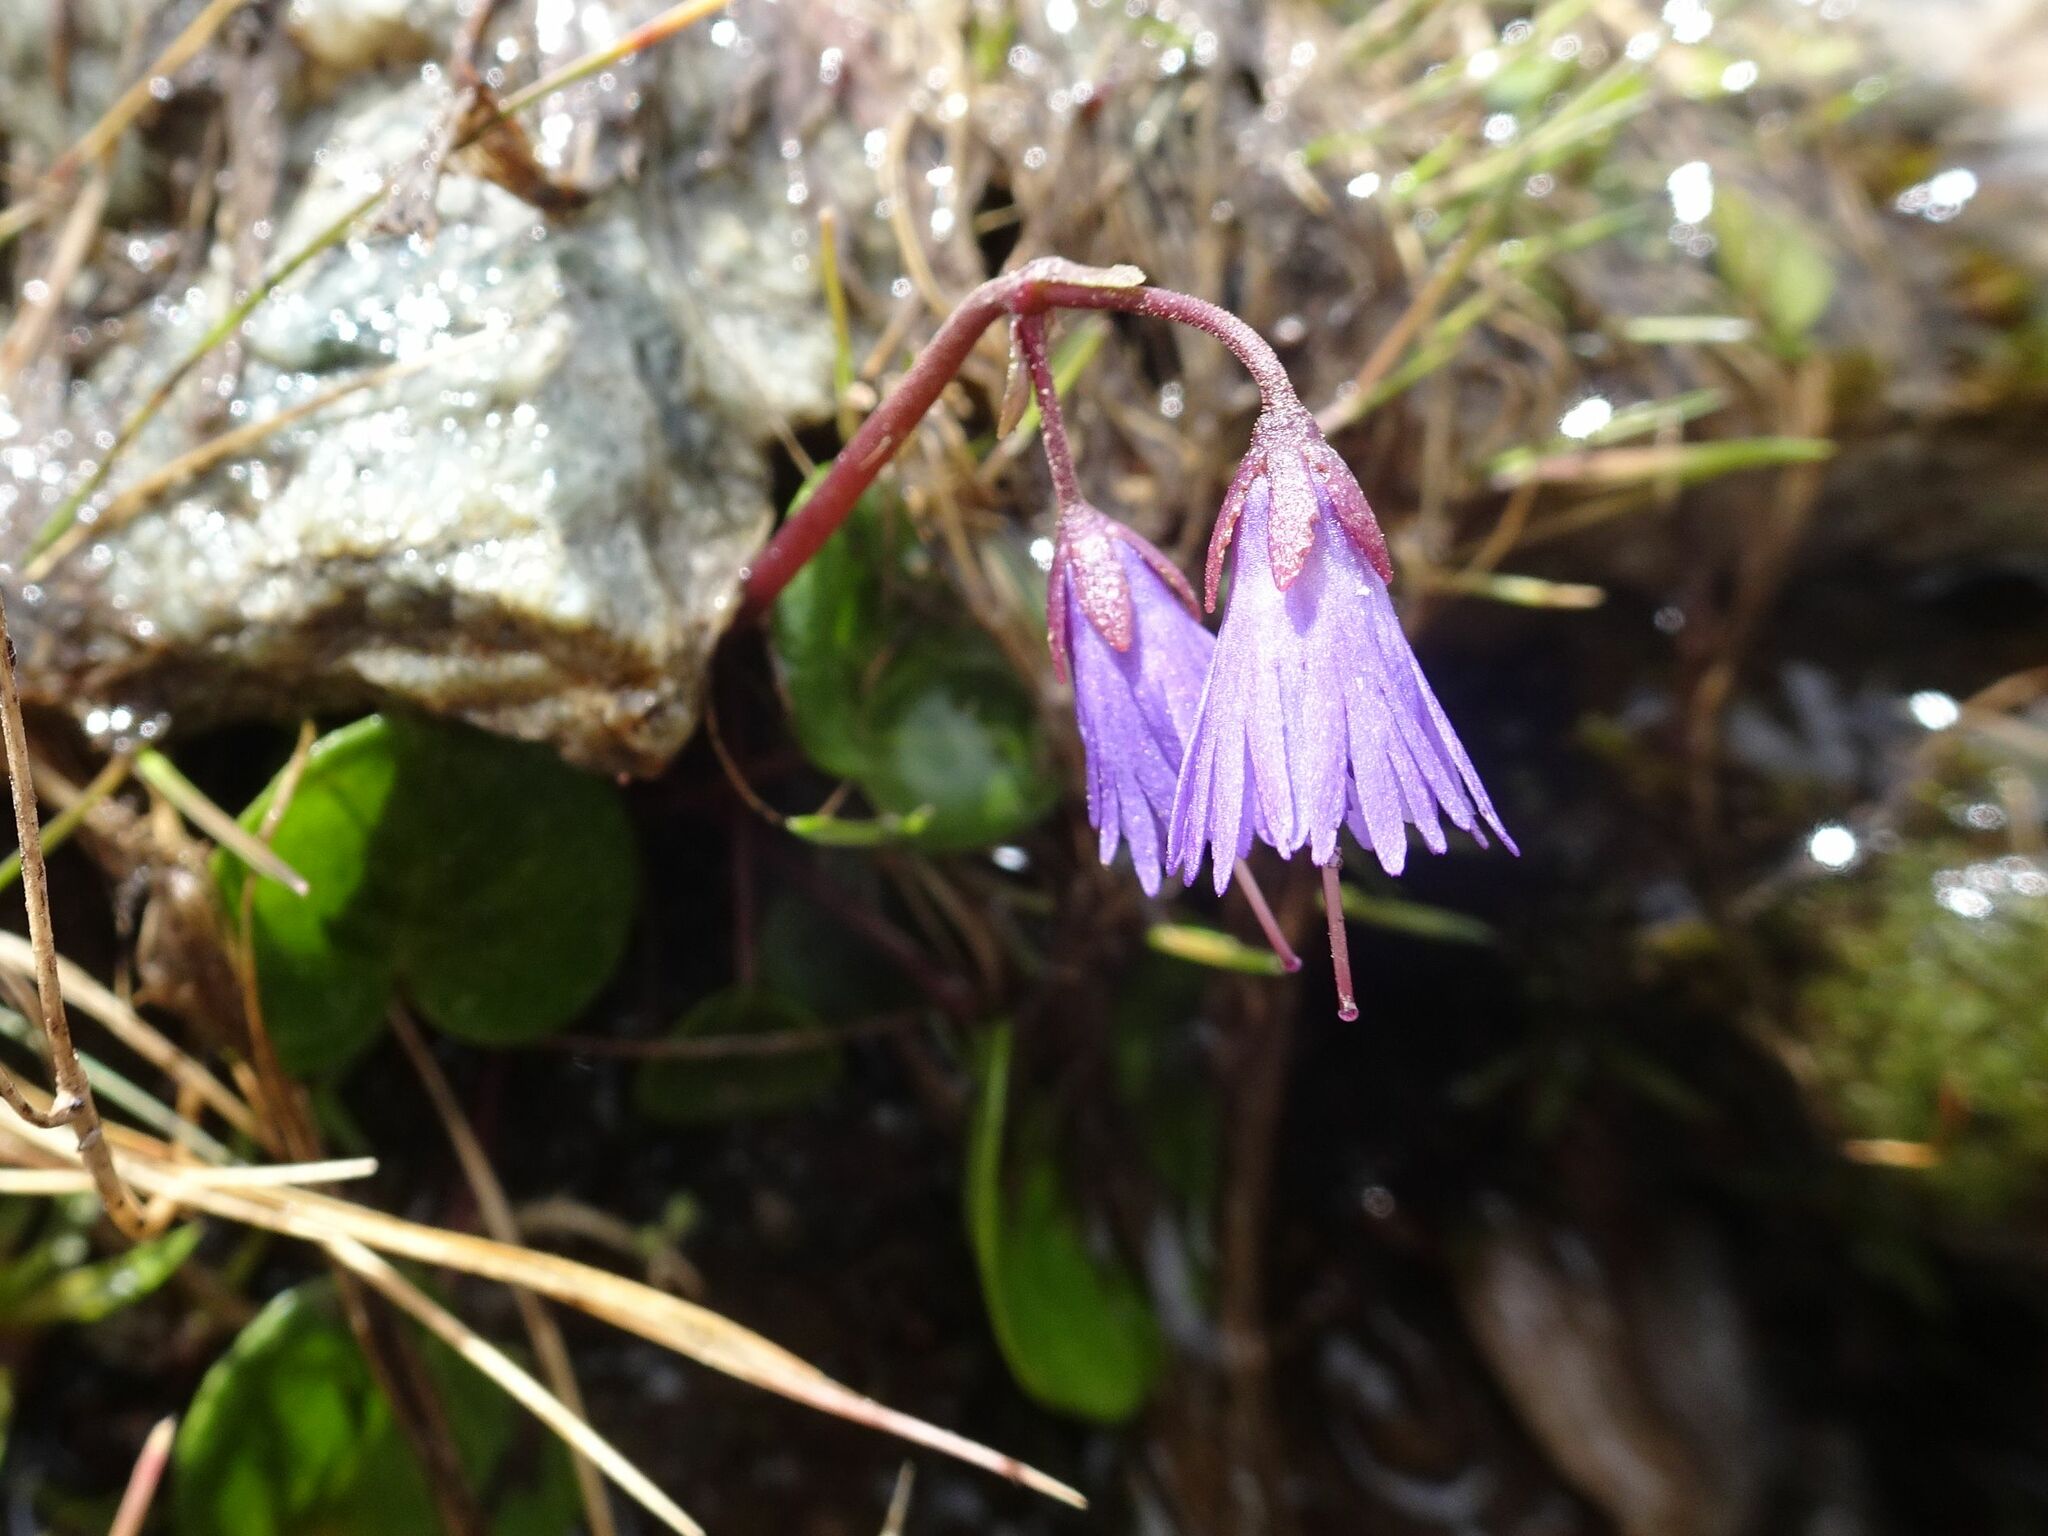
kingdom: Plantae
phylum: Tracheophyta
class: Magnoliopsida
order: Ericales
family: Primulaceae
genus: Soldanella
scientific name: Soldanella alpina
